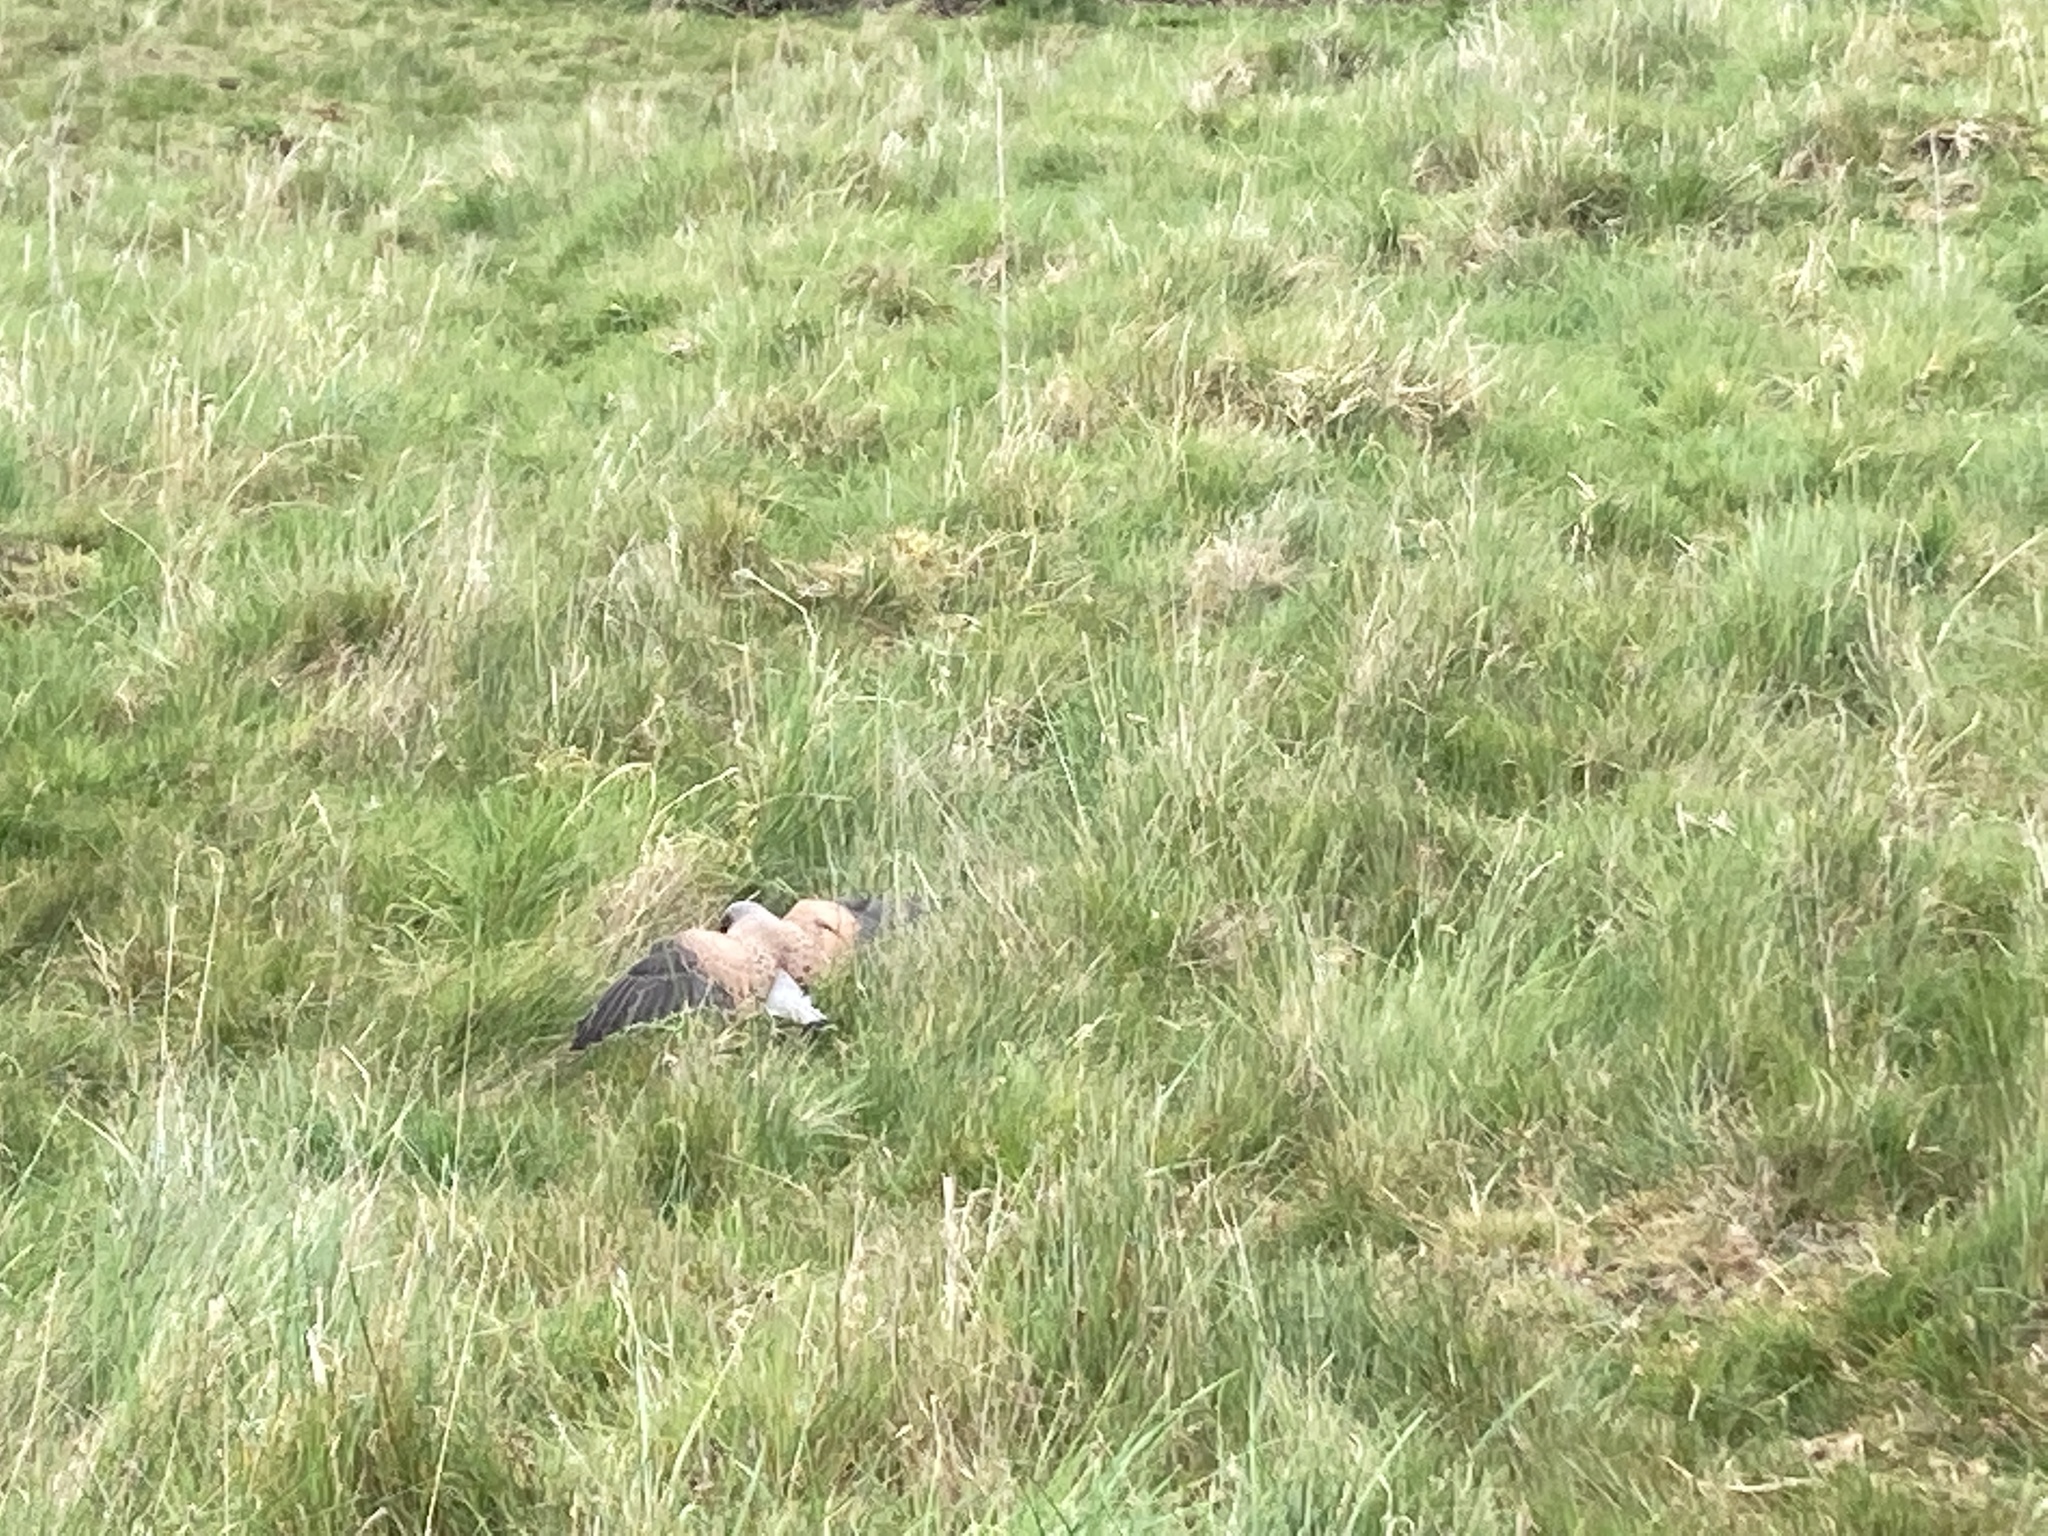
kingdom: Animalia
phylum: Chordata
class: Aves
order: Falconiformes
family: Falconidae
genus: Falco
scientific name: Falco tinnunculus
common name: Common kestrel
